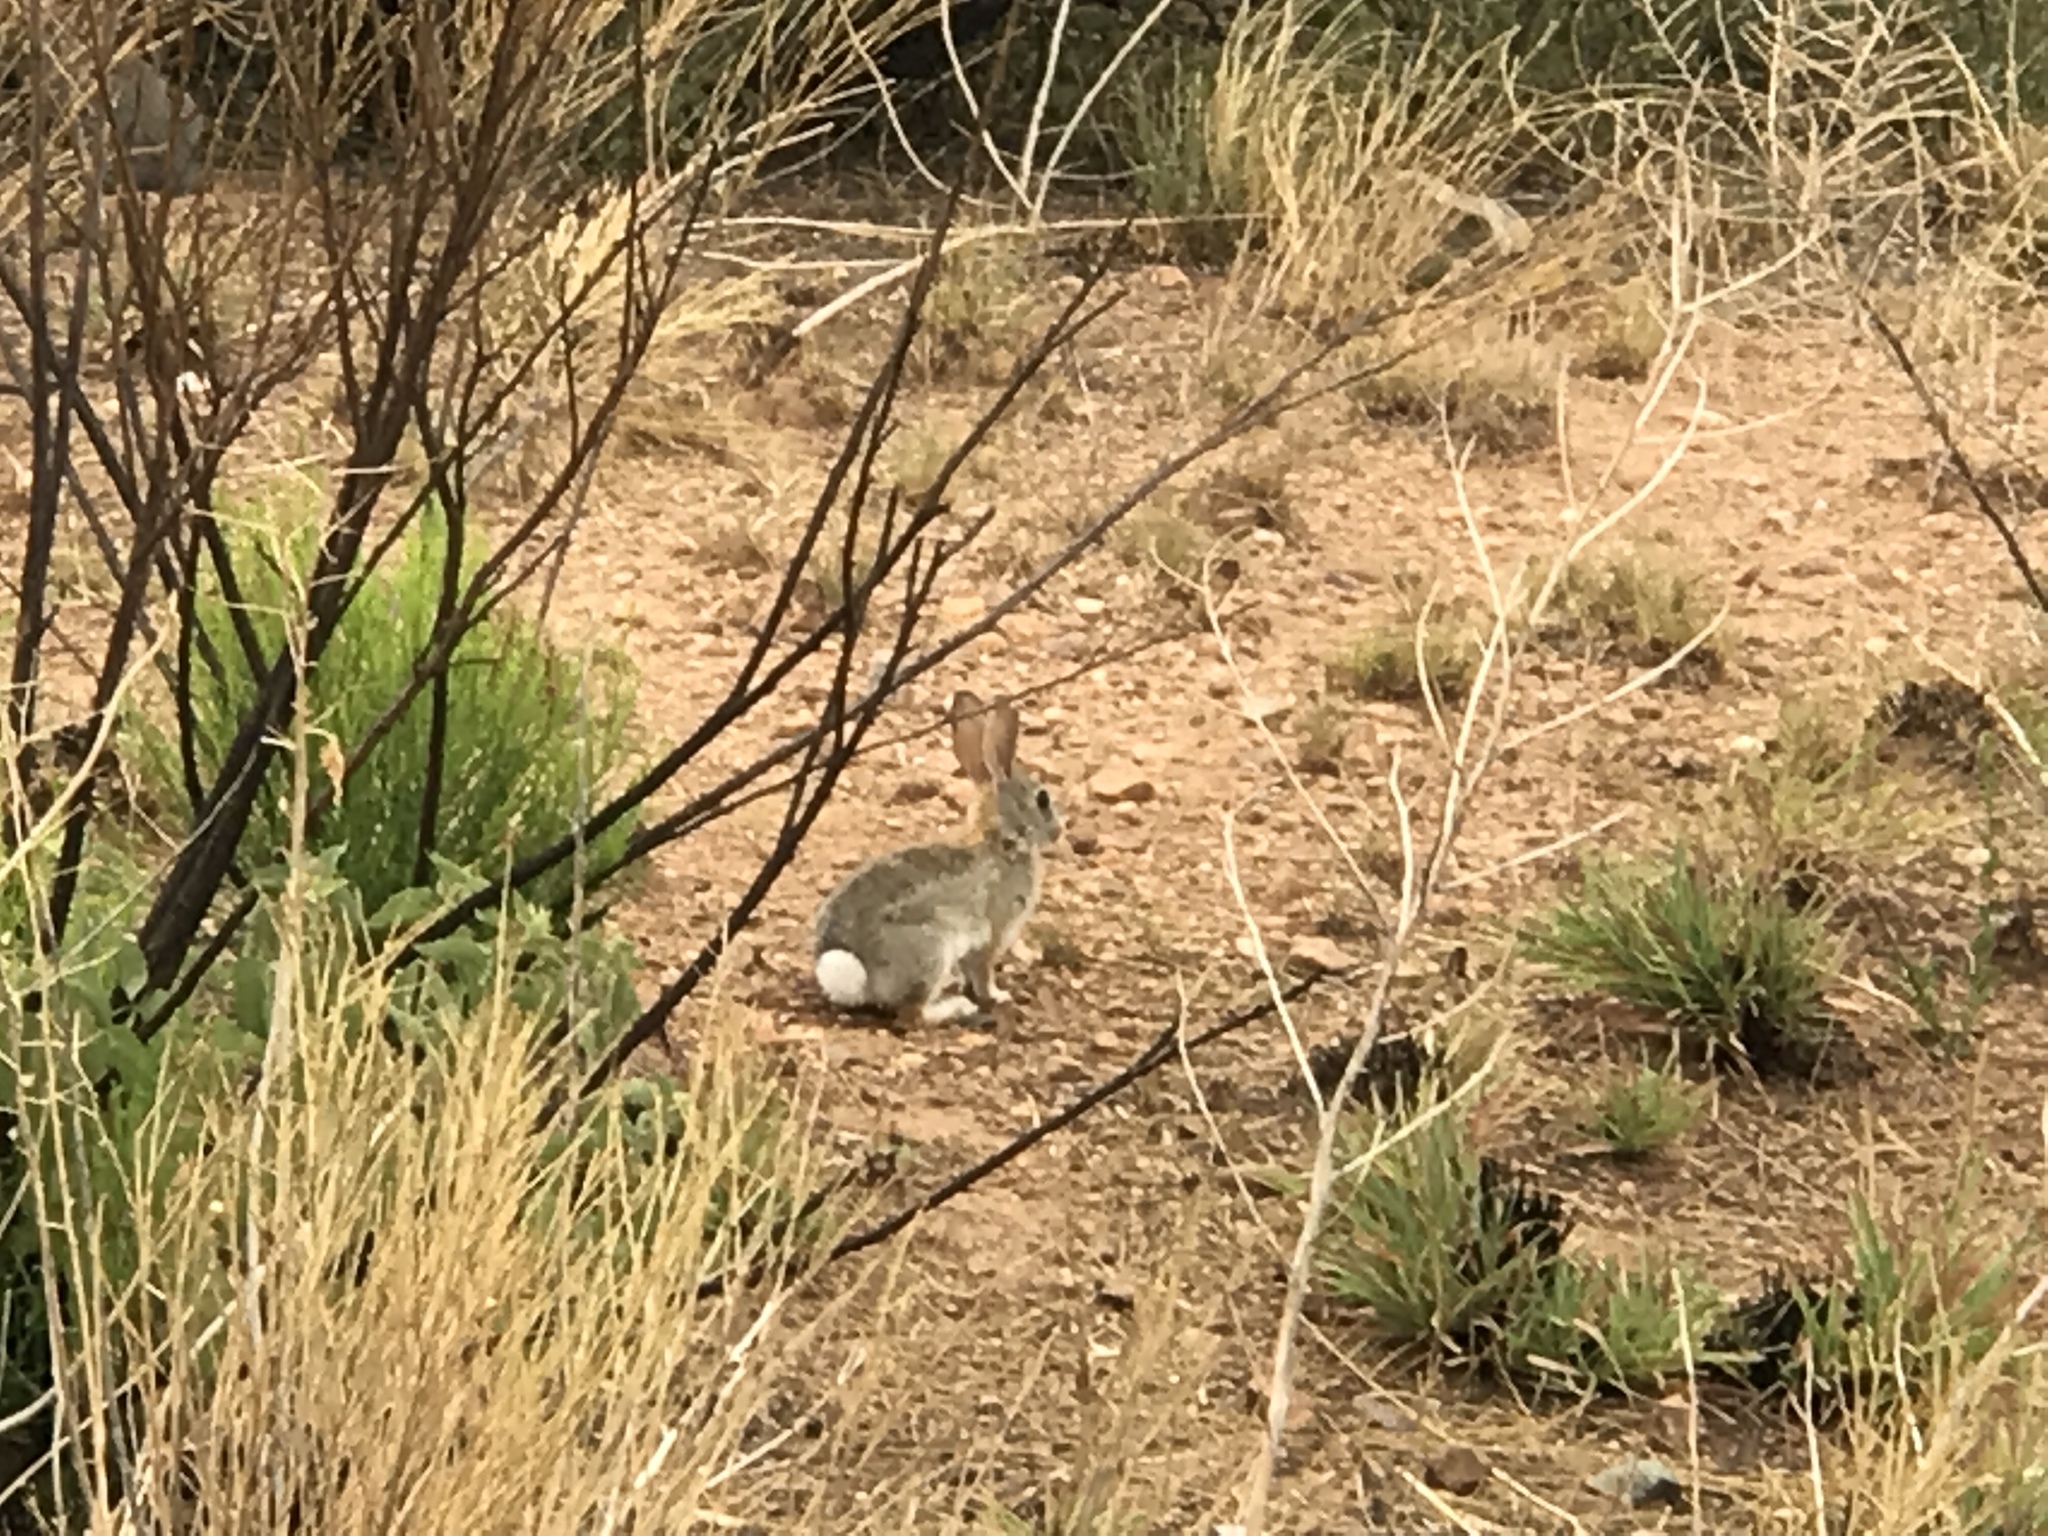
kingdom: Animalia
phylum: Chordata
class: Mammalia
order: Lagomorpha
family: Leporidae
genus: Sylvilagus
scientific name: Sylvilagus audubonii
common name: Desert cottontail
